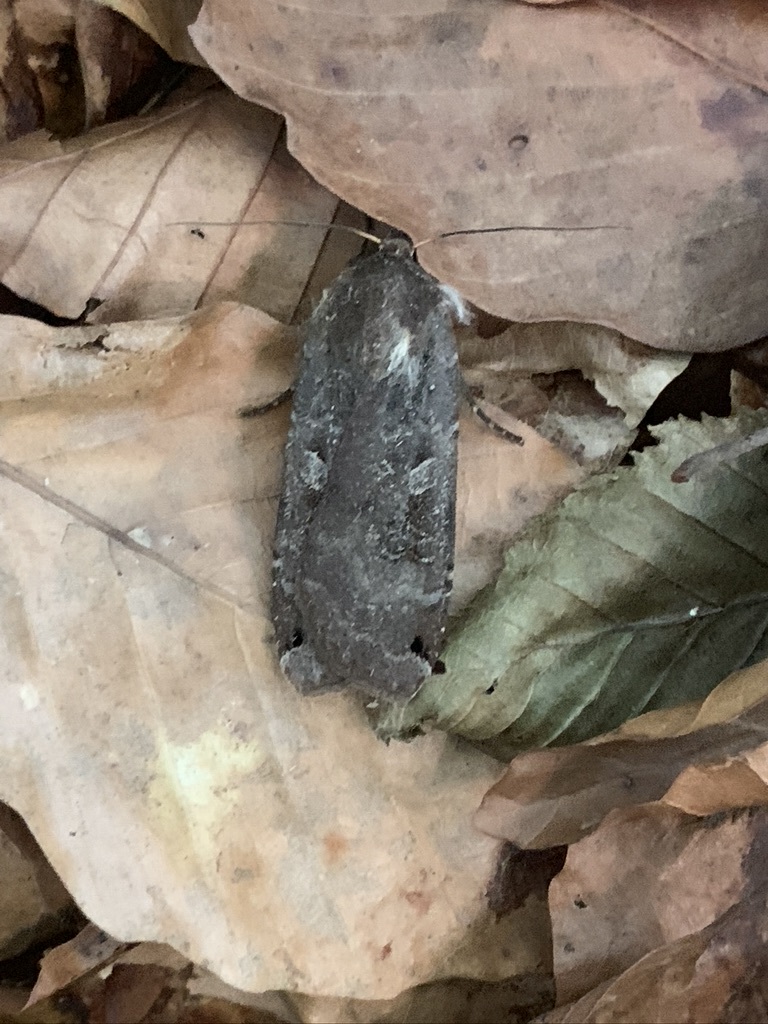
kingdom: Animalia
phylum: Arthropoda
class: Insecta
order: Lepidoptera
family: Noctuidae
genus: Noctua
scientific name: Noctua pronuba
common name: Large yellow underwing
